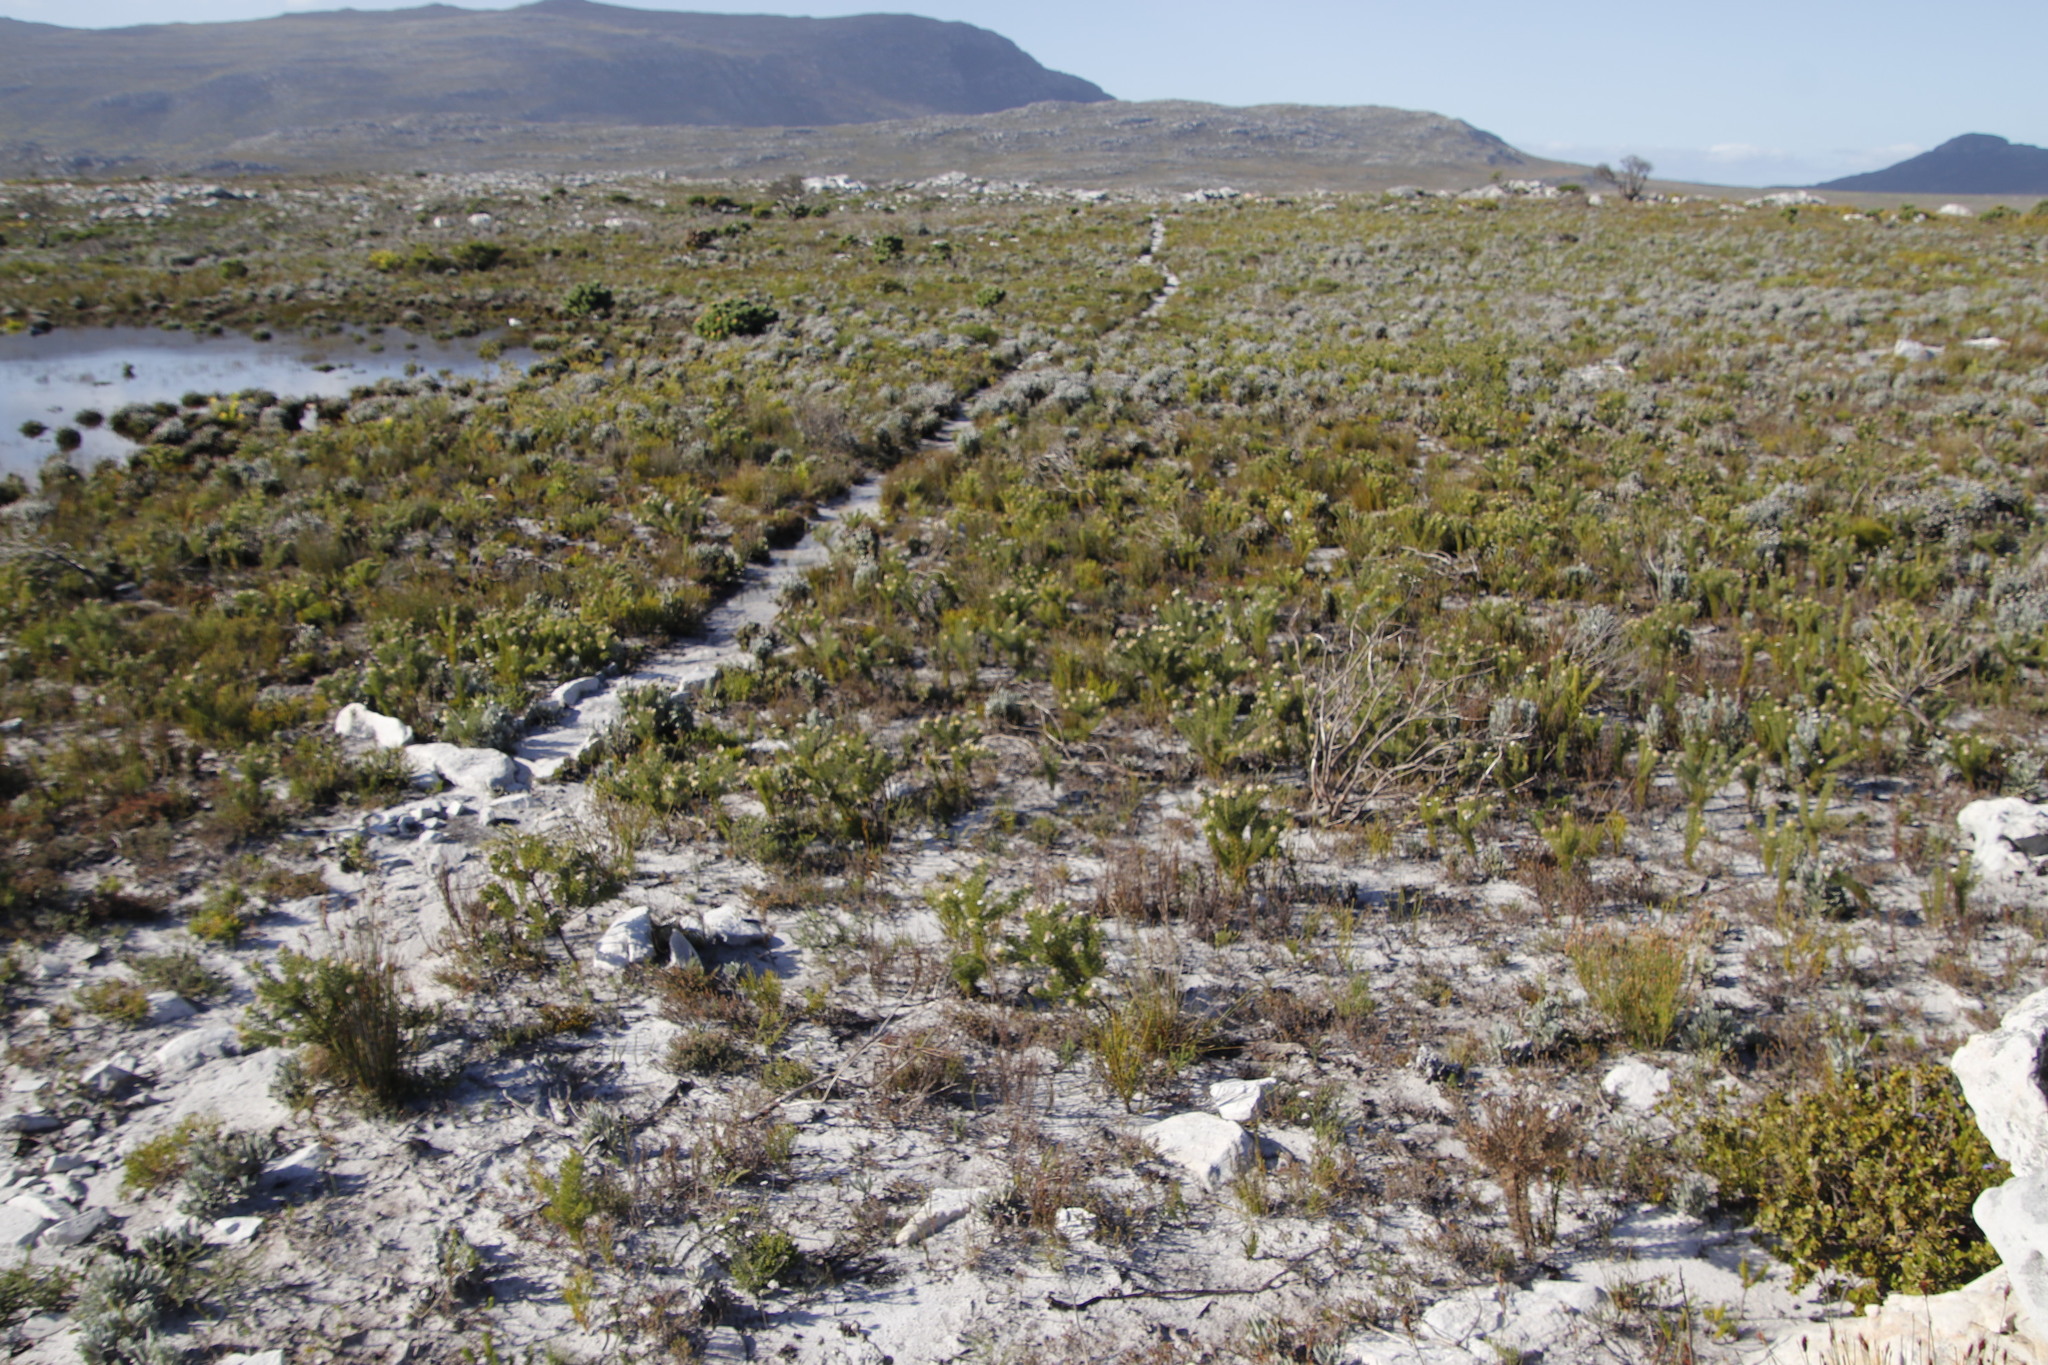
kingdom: Plantae
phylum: Tracheophyta
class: Magnoliopsida
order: Proteales
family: Proteaceae
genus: Serruria
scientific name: Serruria villosa
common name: Golden spiderhead
